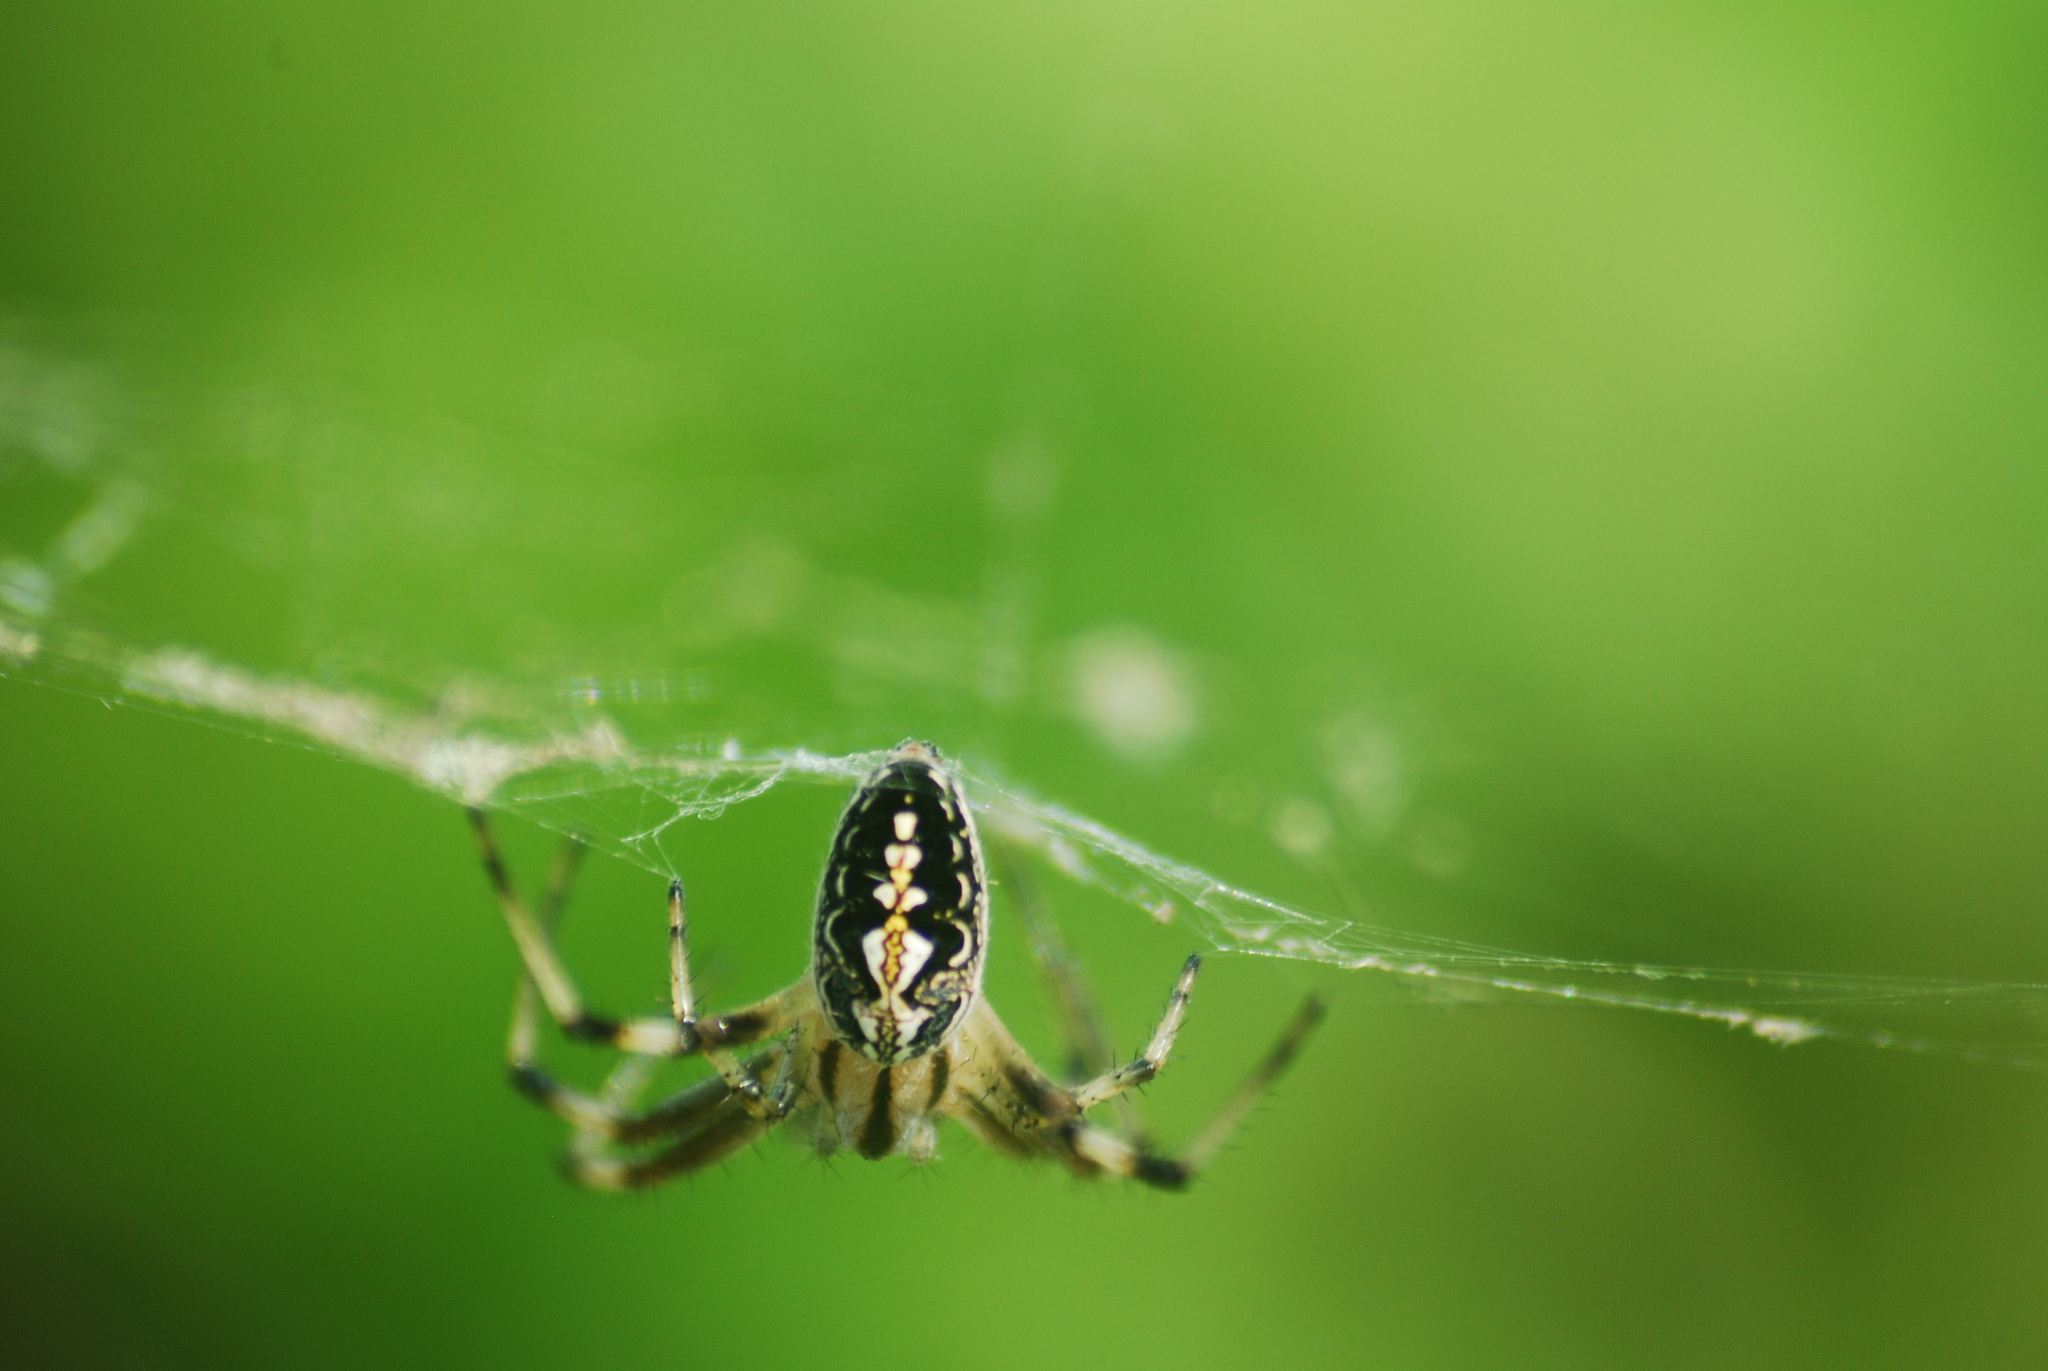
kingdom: Animalia
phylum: Arthropoda
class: Arachnida
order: Araneae
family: Araneidae
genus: Neoscona
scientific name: Neoscona oaxacensis
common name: Orb weavers
